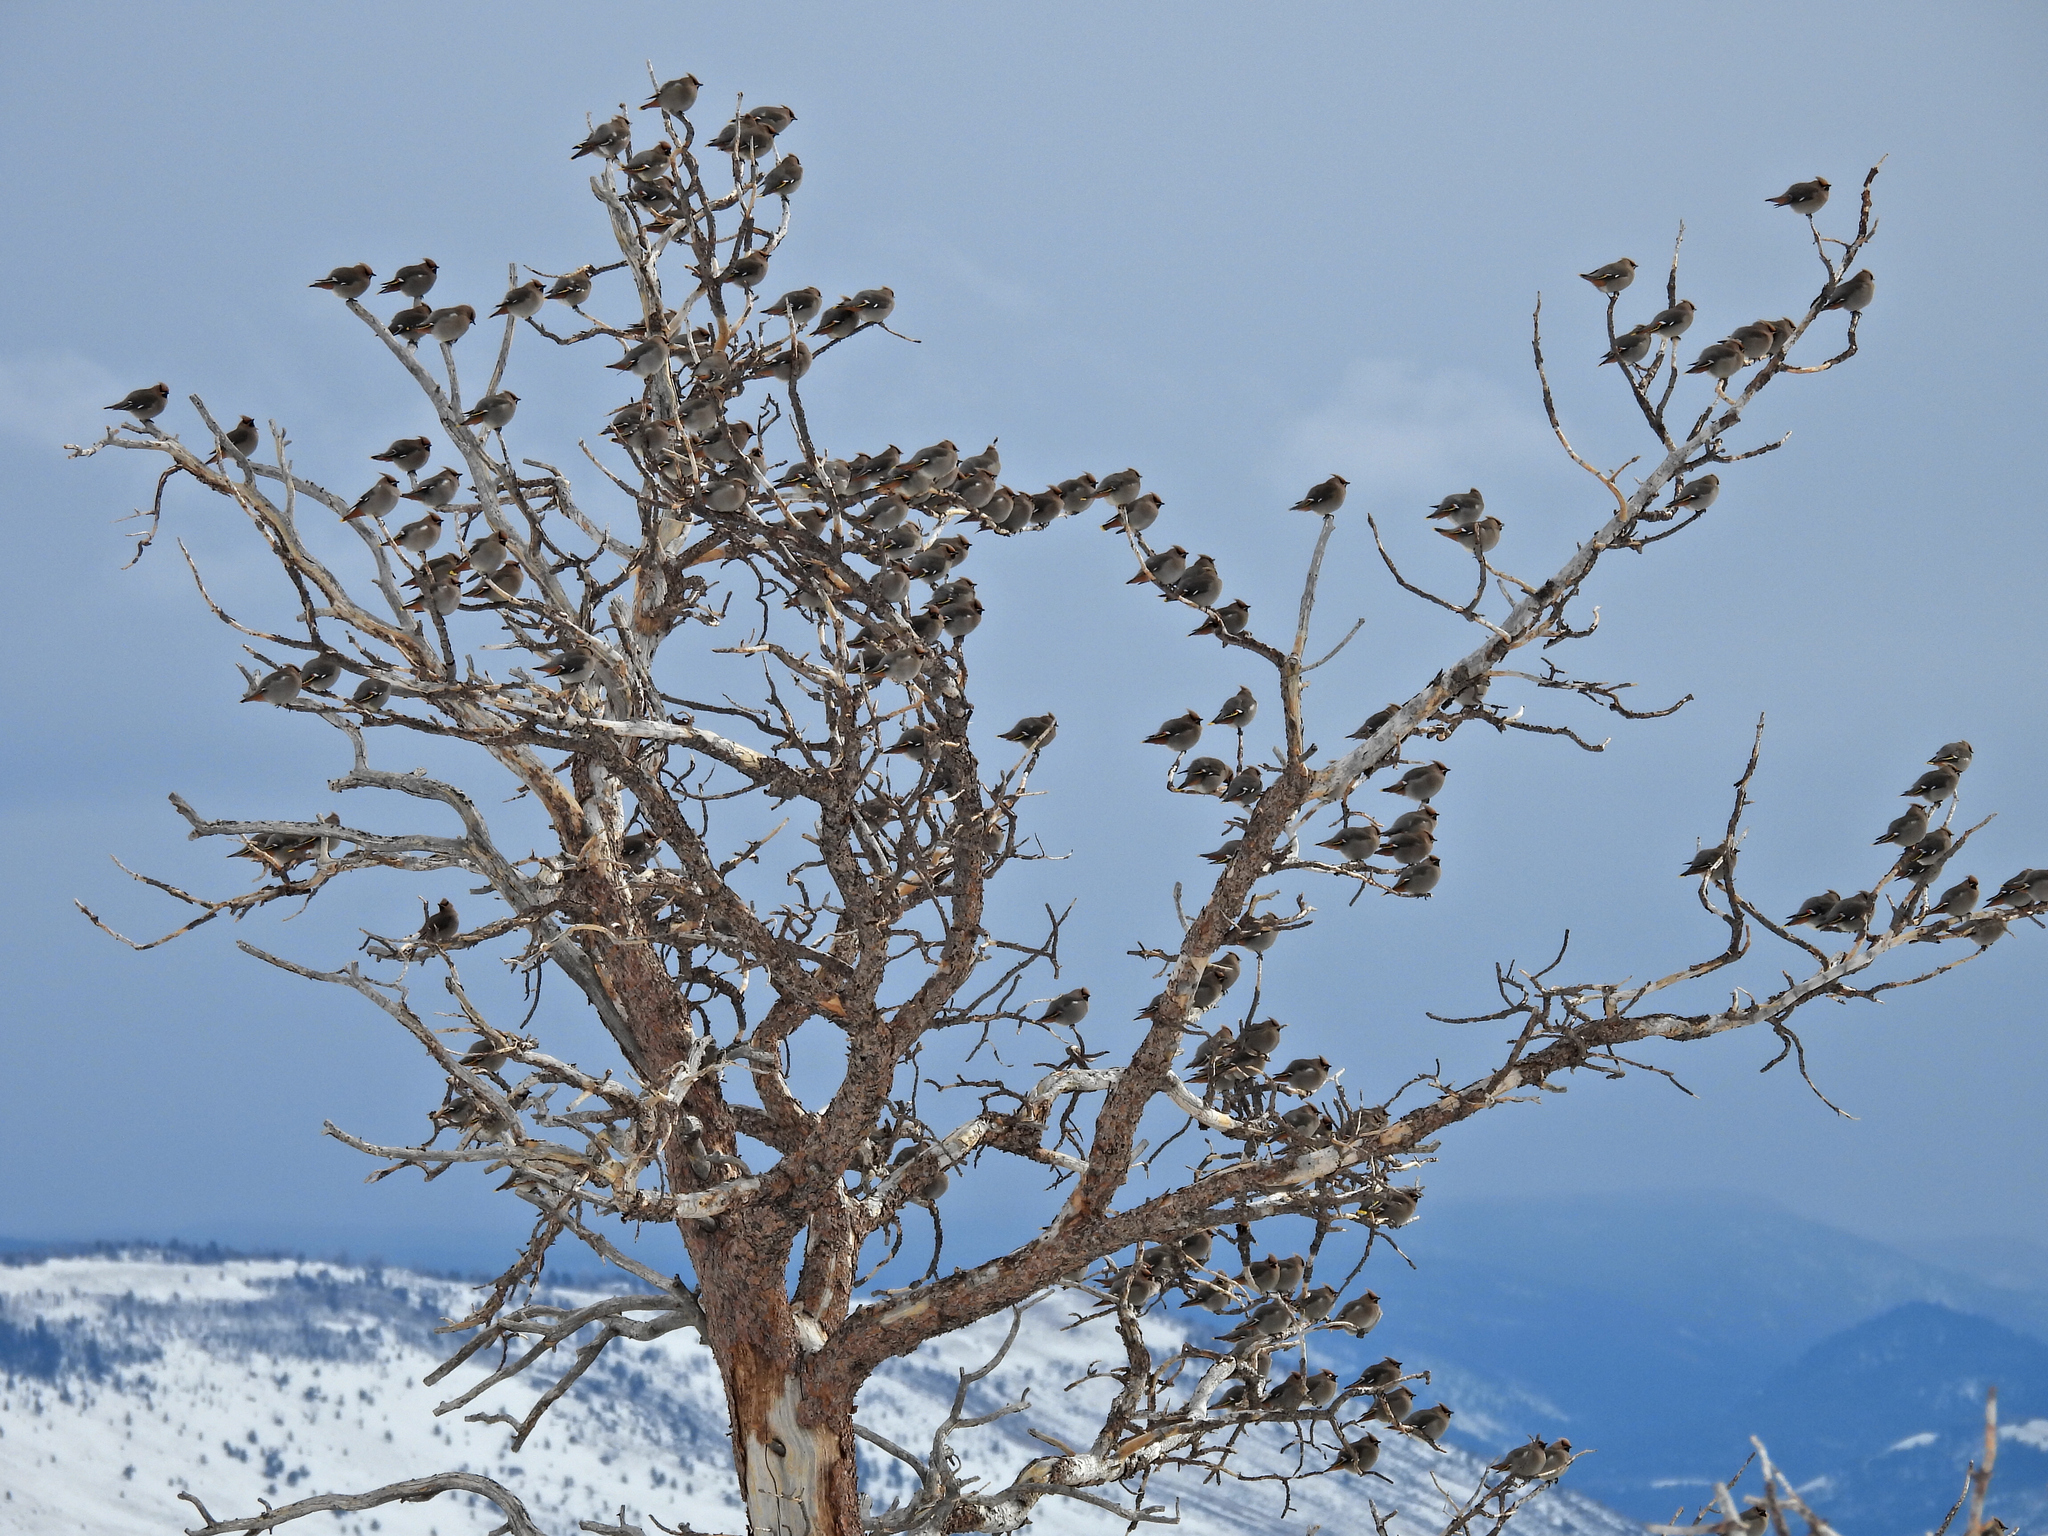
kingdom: Animalia
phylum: Chordata
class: Aves
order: Passeriformes
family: Bombycillidae
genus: Bombycilla
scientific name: Bombycilla garrulus
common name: Bohemian waxwing
